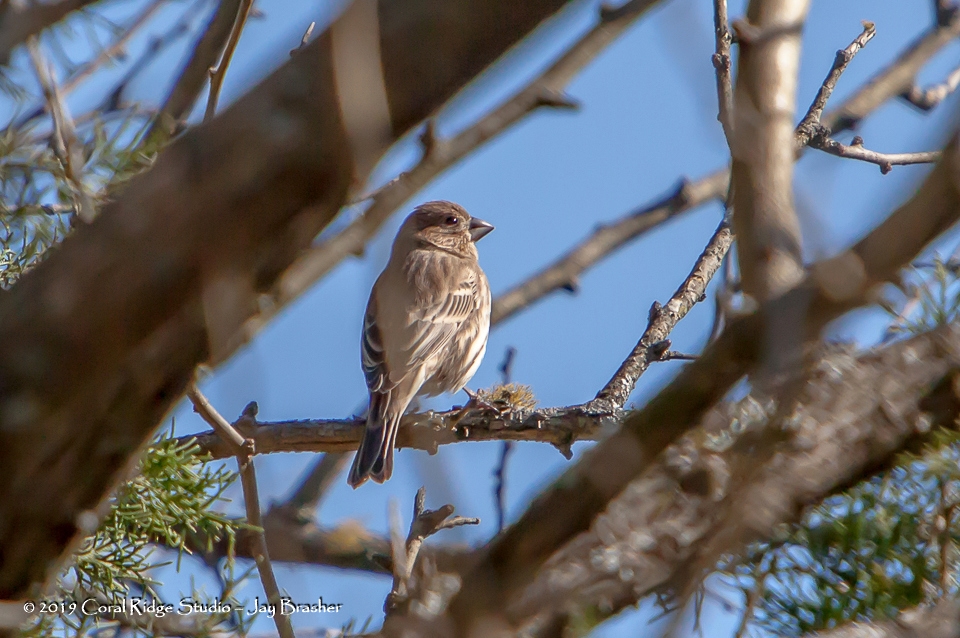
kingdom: Animalia
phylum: Chordata
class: Aves
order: Passeriformes
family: Fringillidae
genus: Haemorhous
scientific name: Haemorhous mexicanus
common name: House finch
